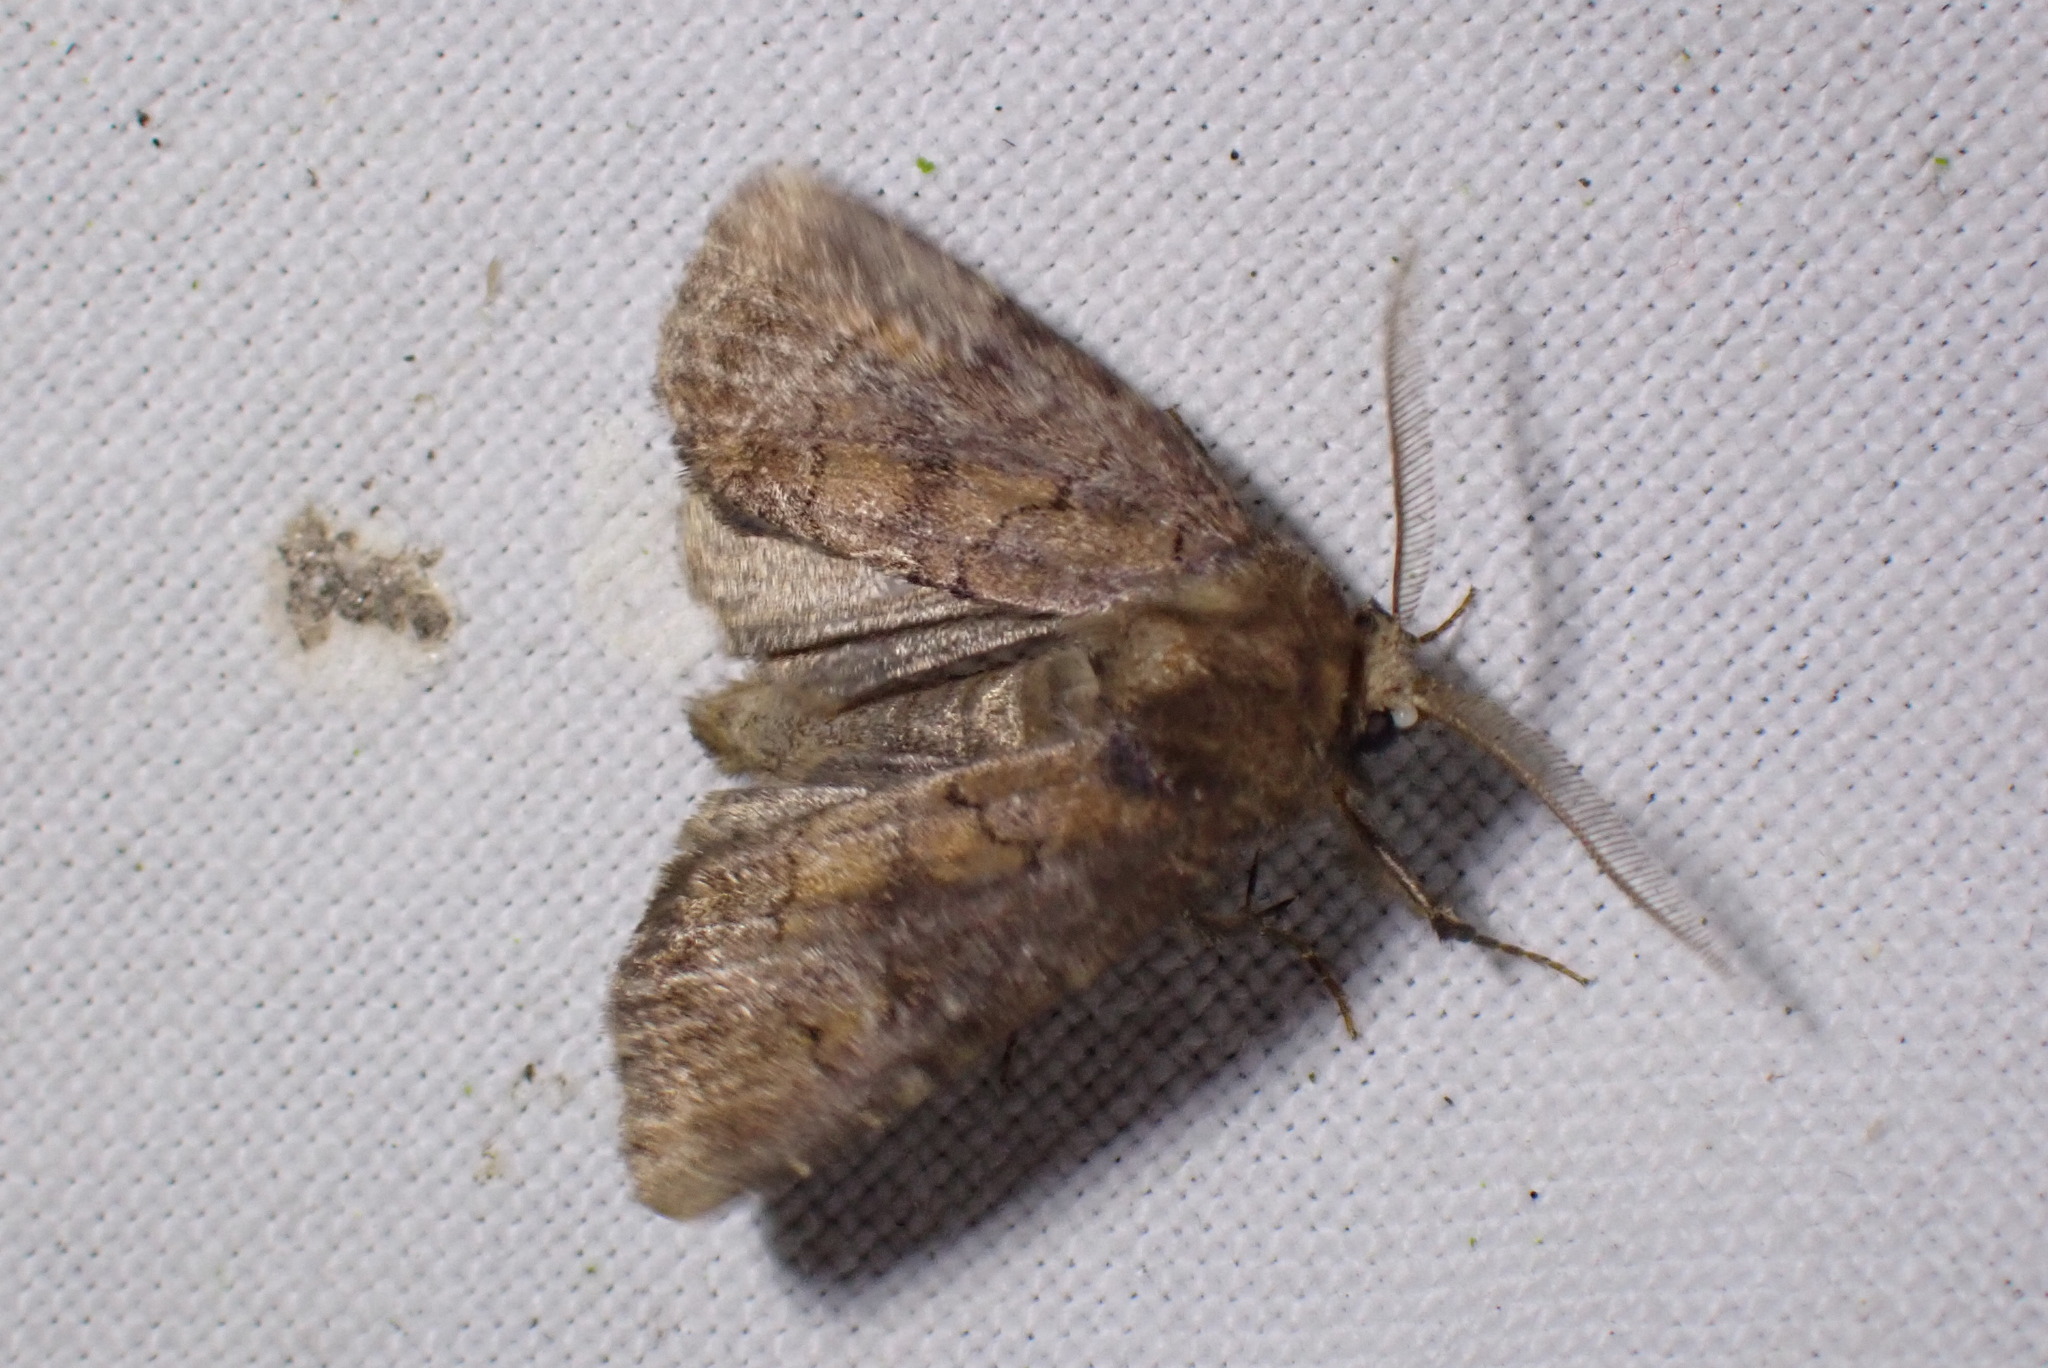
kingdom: Animalia
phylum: Arthropoda
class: Insecta
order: Lepidoptera
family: Noctuidae
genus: Charanyca
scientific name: Charanyca ferruginea
